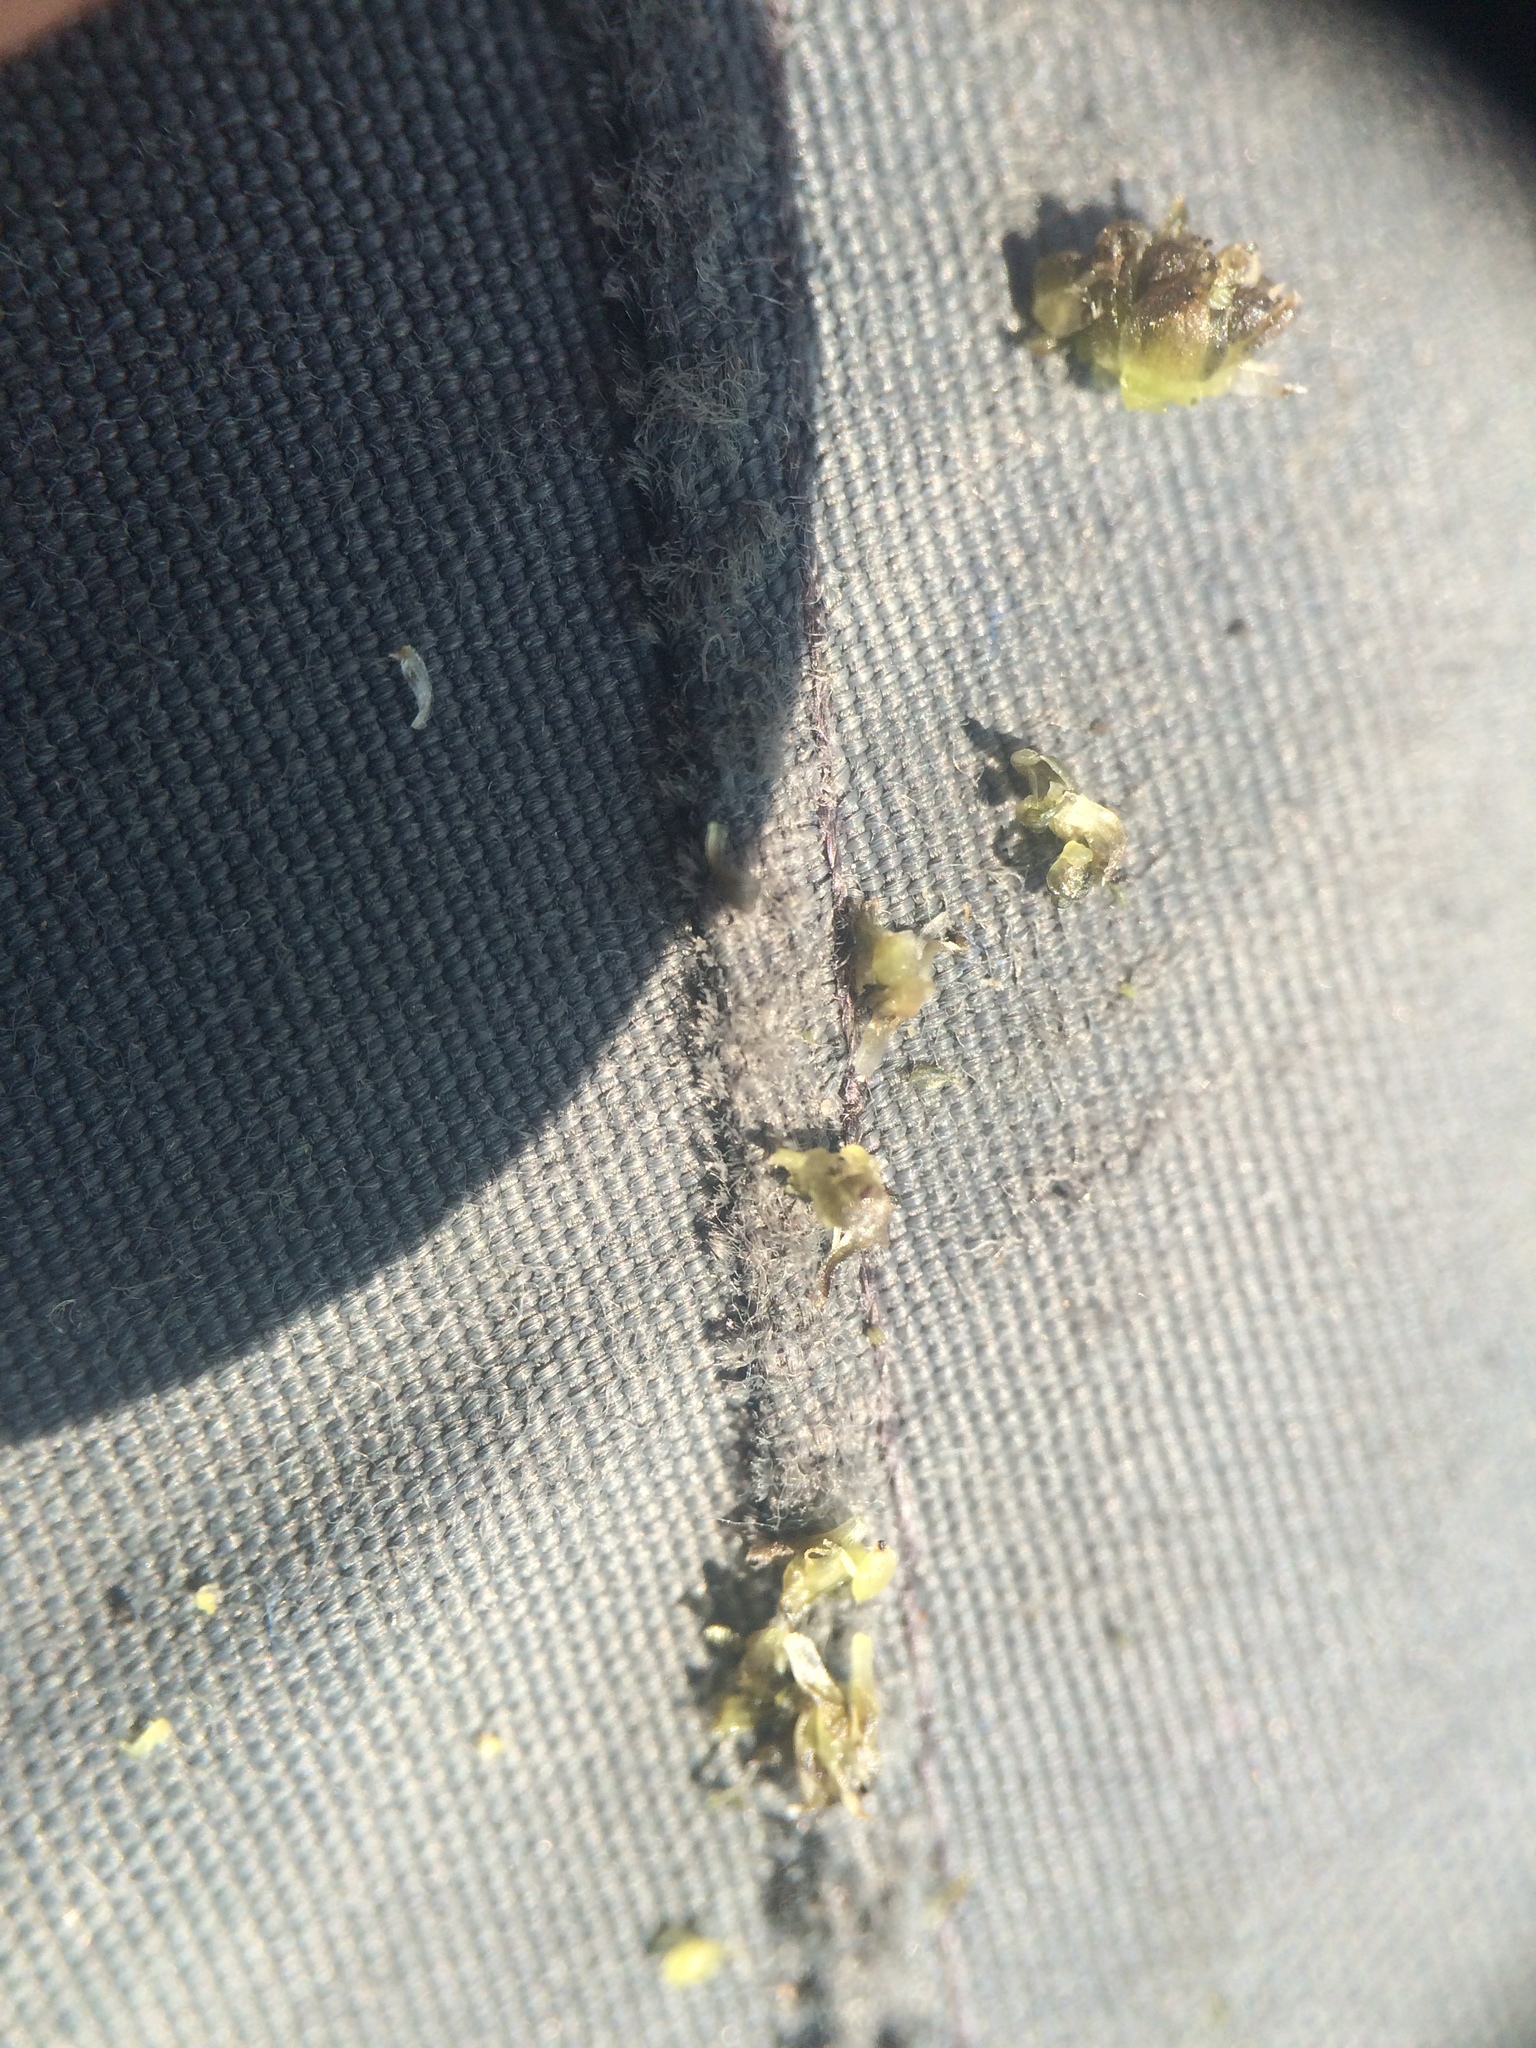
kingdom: Plantae
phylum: Tracheophyta
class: Liliopsida
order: Poales
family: Eriocaulaceae
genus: Eriocaulon
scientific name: Eriocaulon parkeri
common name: Parker's pipewort
